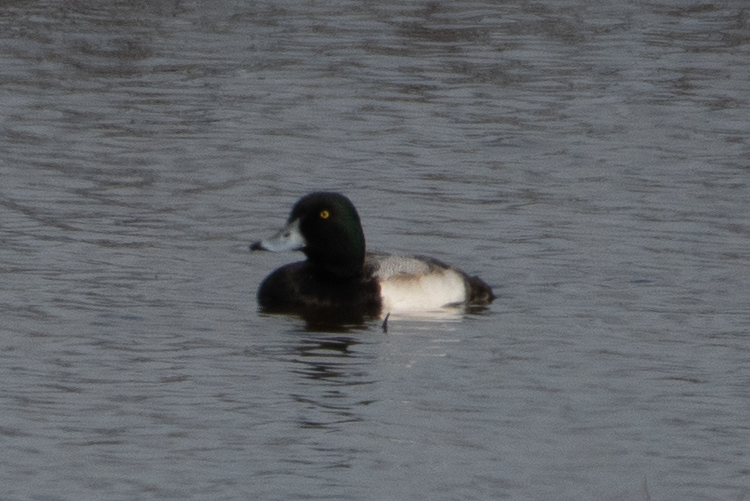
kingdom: Animalia
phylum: Chordata
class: Aves
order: Anseriformes
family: Anatidae
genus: Aythya
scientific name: Aythya marila
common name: Greater scaup
